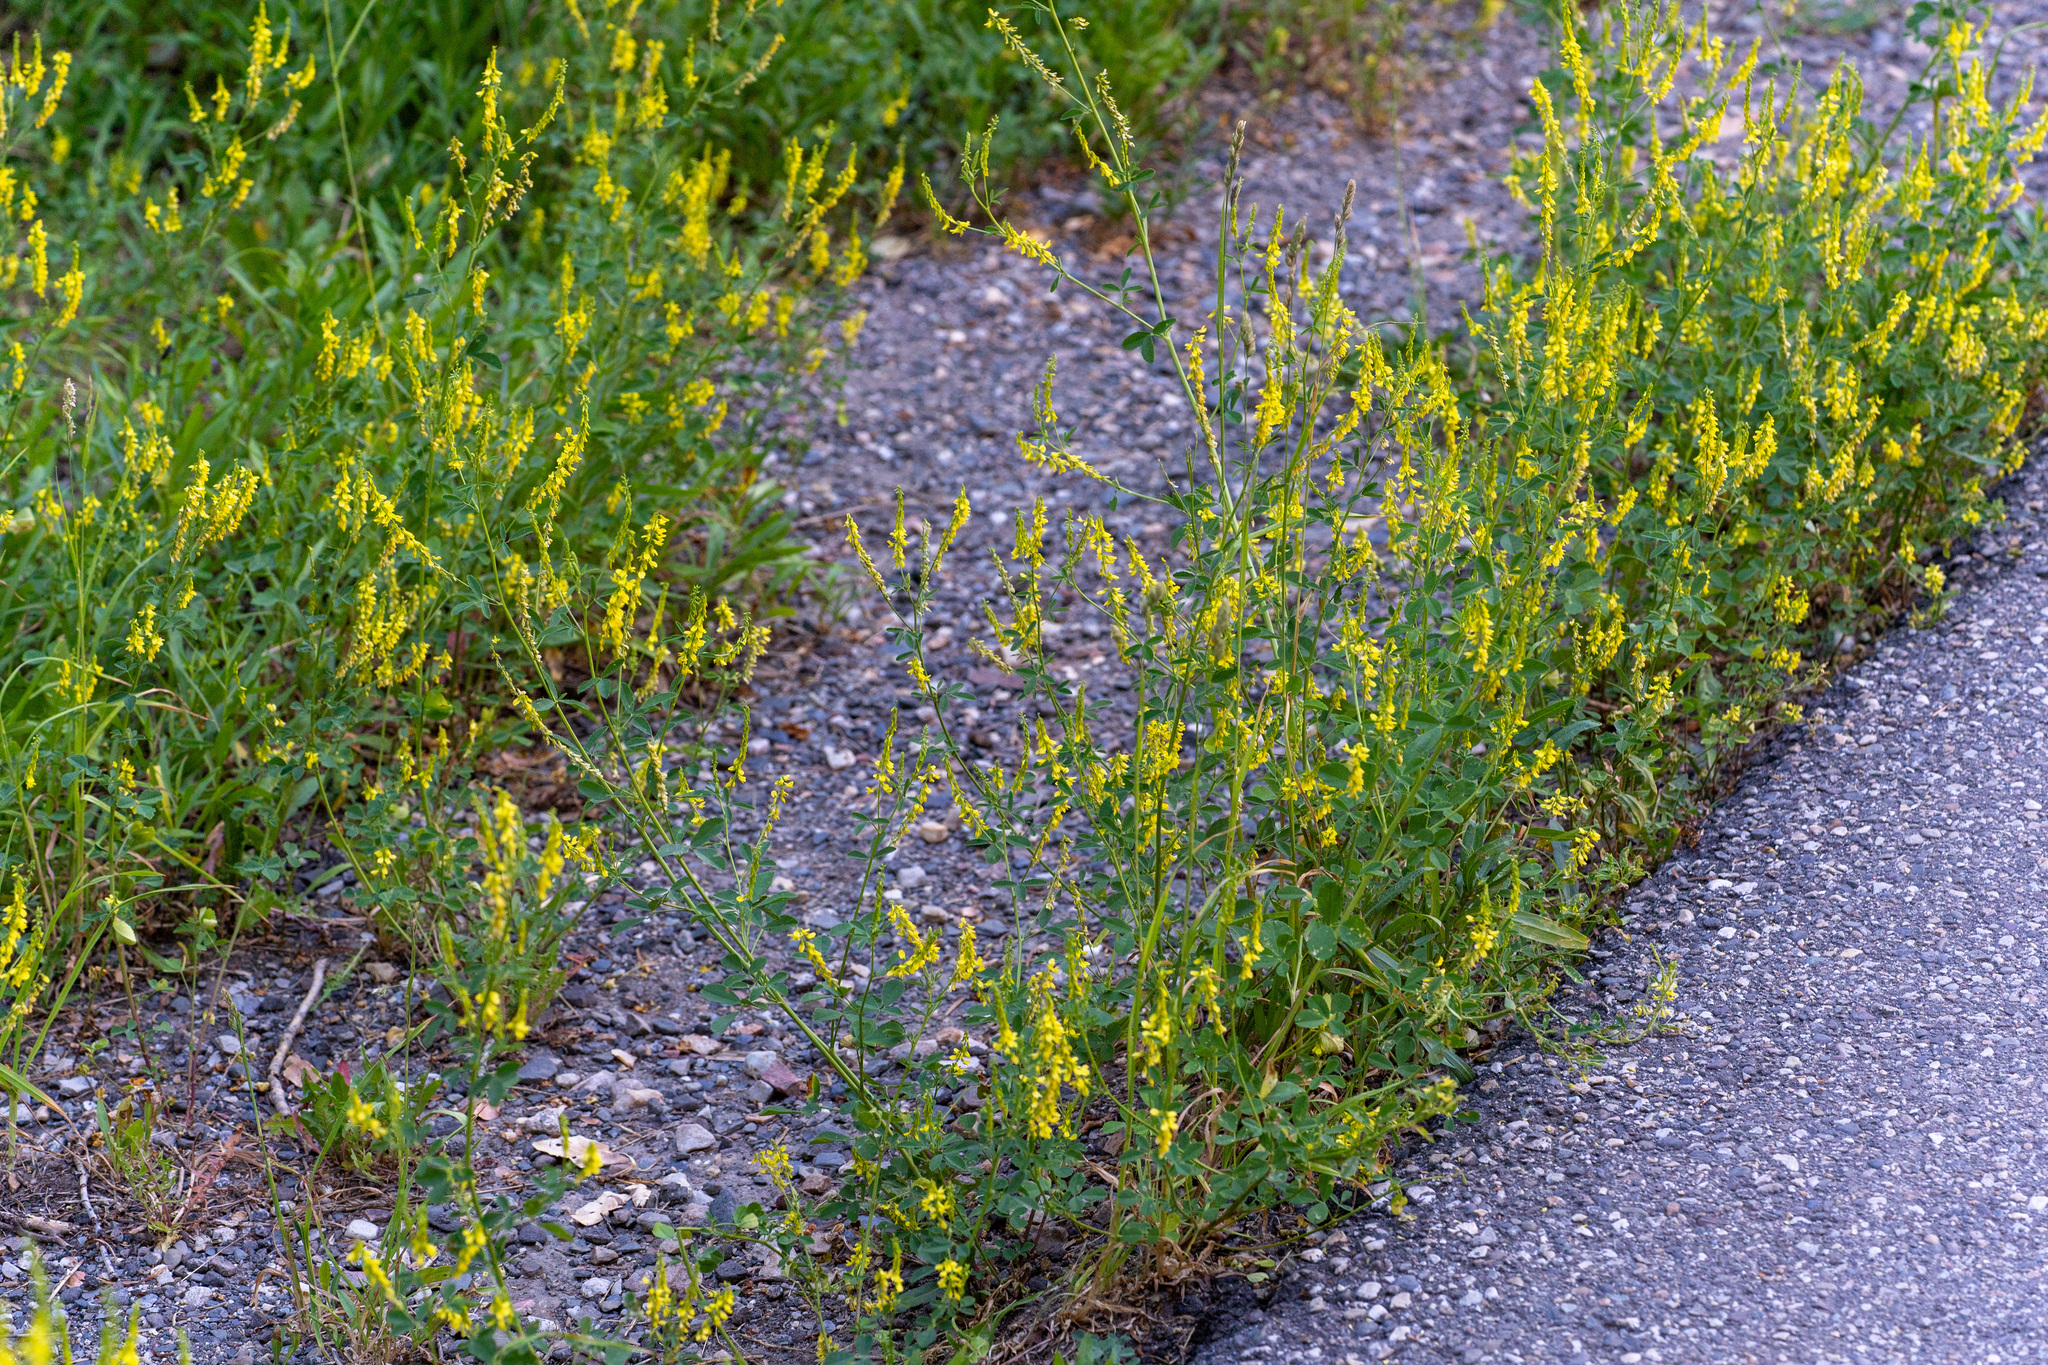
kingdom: Plantae
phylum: Tracheophyta
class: Magnoliopsida
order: Fabales
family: Fabaceae
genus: Melilotus
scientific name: Melilotus officinalis
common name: Sweetclover
